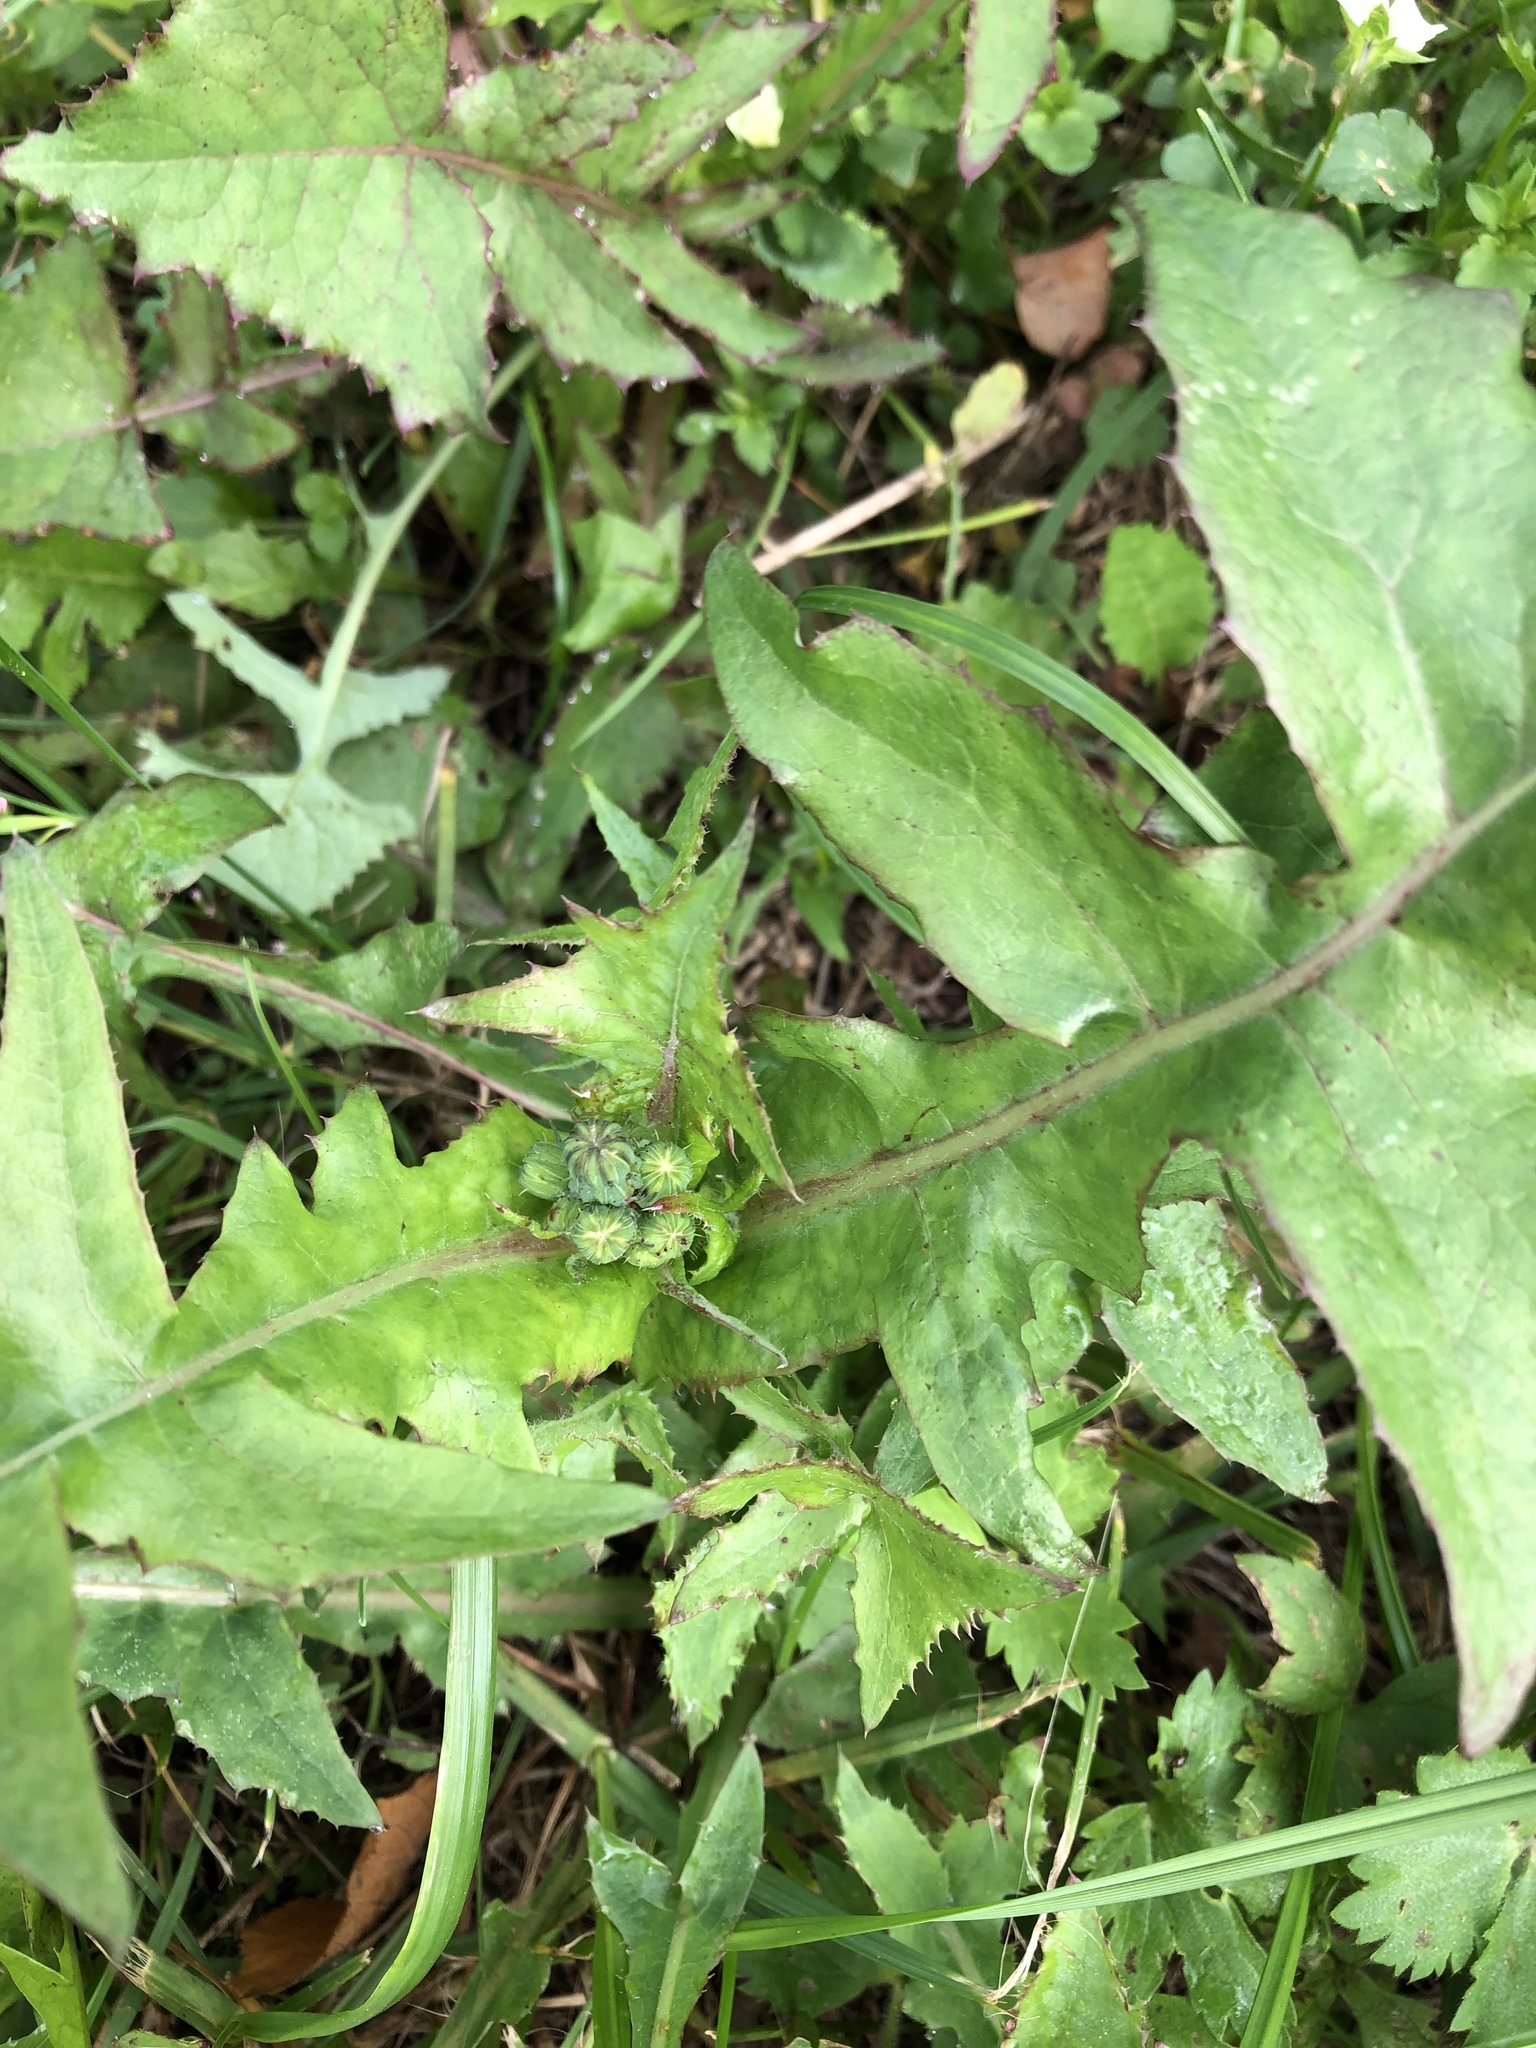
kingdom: Plantae
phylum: Tracheophyta
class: Magnoliopsida
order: Asterales
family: Asteraceae
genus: Sonchus
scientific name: Sonchus oleraceus
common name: Common sowthistle
